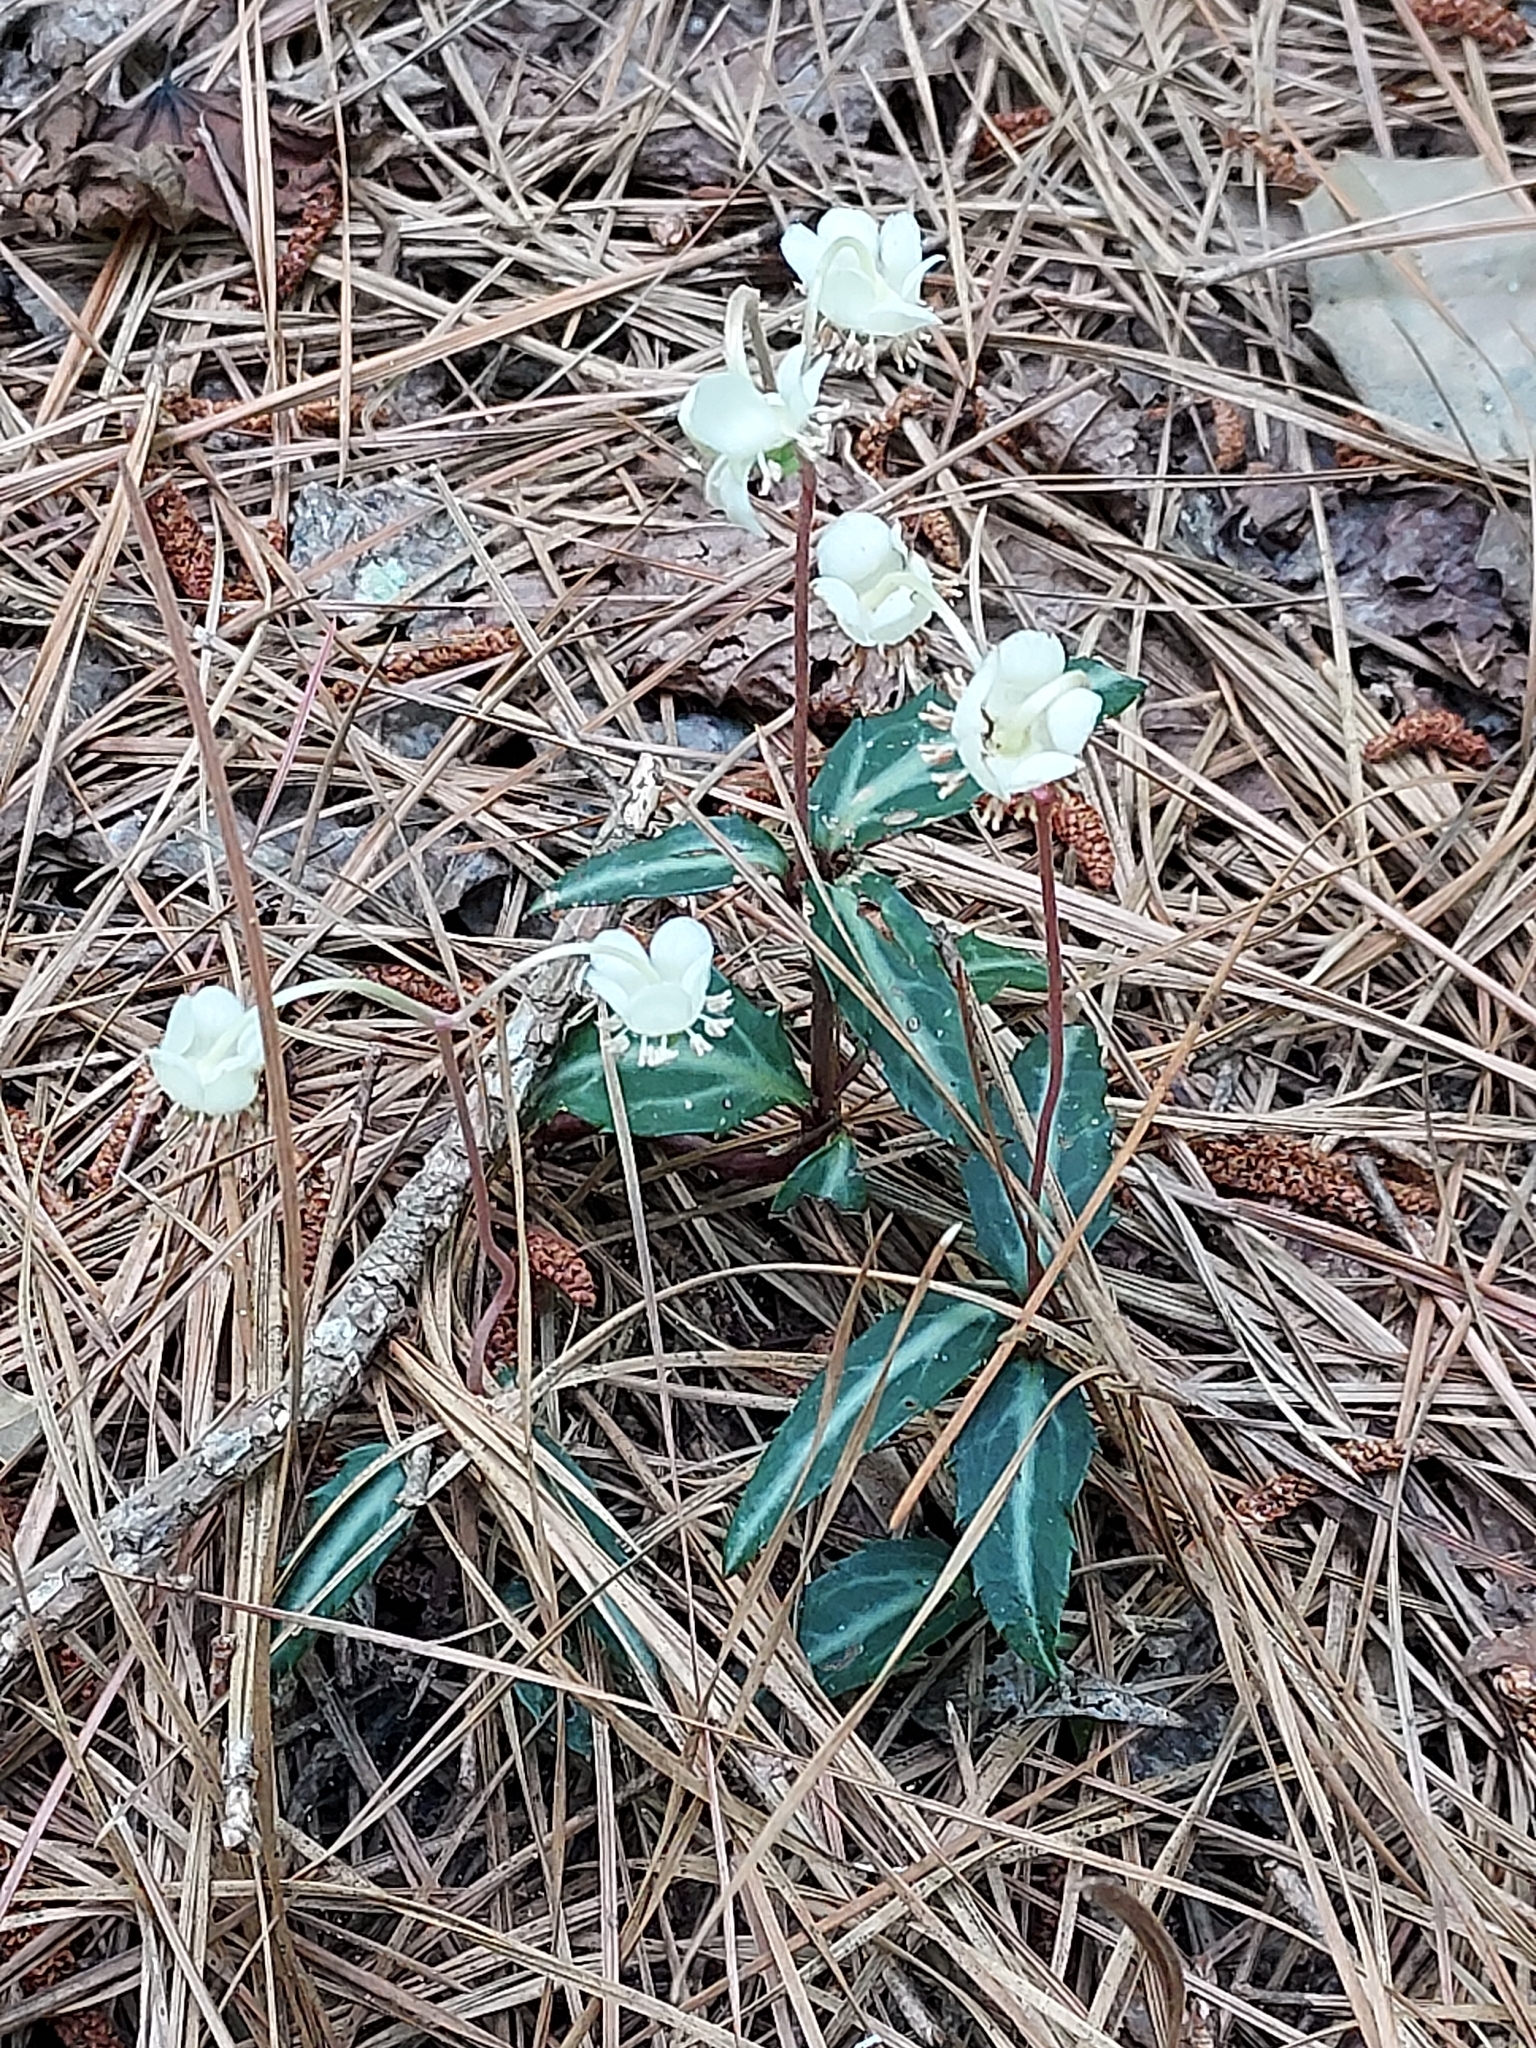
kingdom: Plantae
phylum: Tracheophyta
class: Magnoliopsida
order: Ericales
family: Ericaceae
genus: Chimaphila
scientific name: Chimaphila maculata
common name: Spotted pipsissewa
